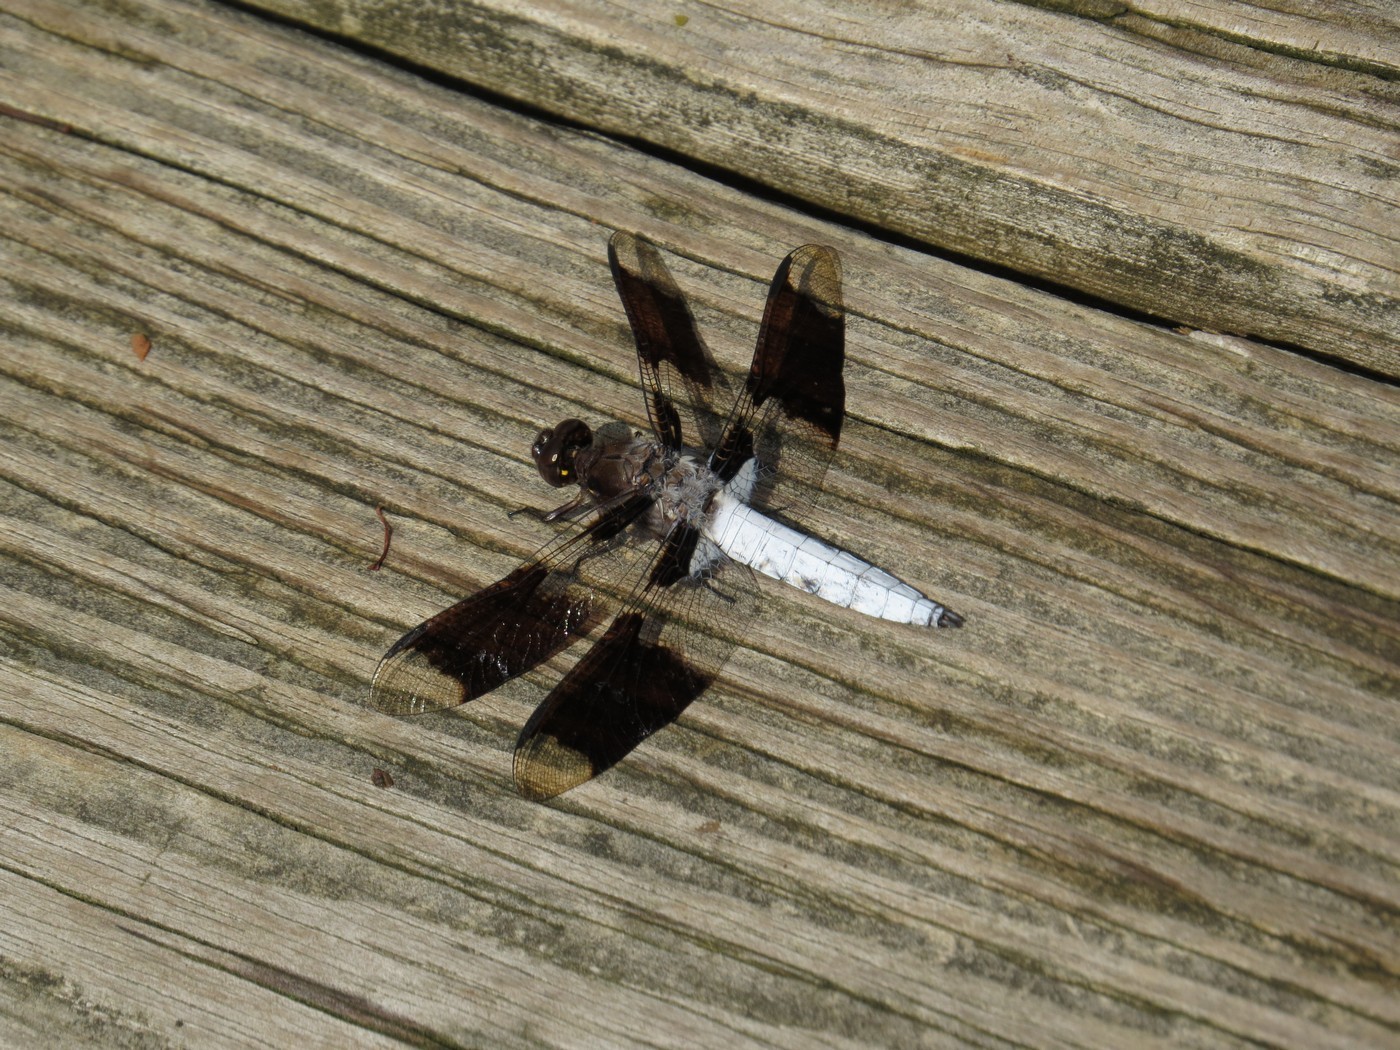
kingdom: Animalia
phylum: Arthropoda
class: Insecta
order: Odonata
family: Libellulidae
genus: Plathemis
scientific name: Plathemis lydia
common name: Common whitetail
